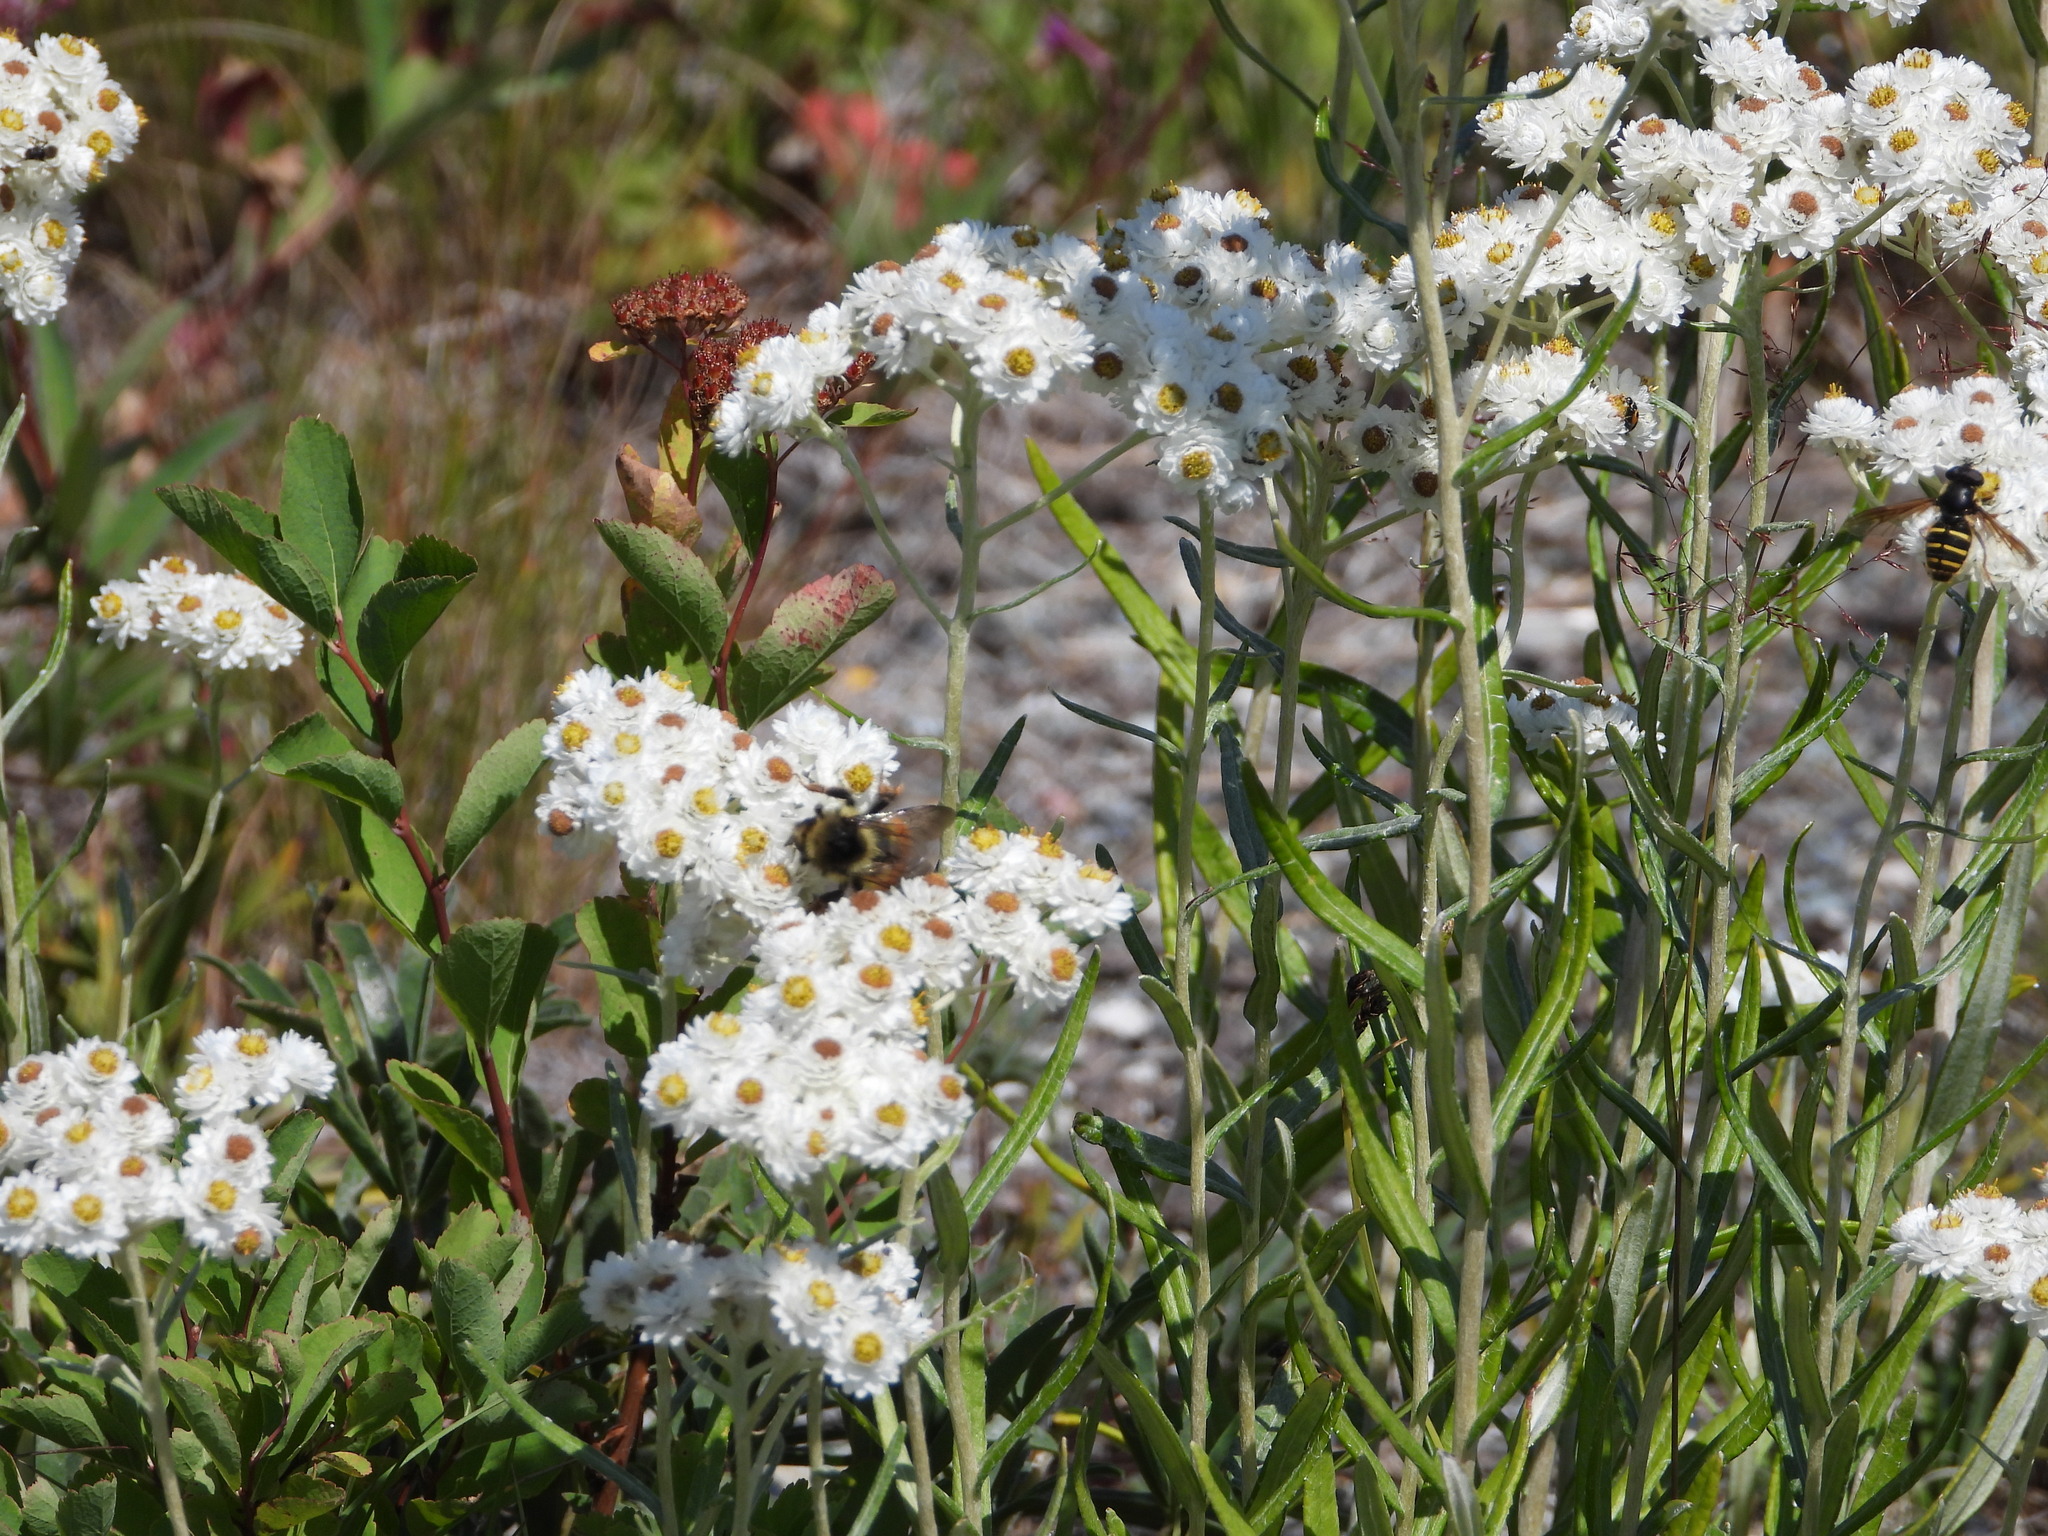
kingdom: Animalia
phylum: Arthropoda
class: Insecta
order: Hymenoptera
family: Apidae
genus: Bombus
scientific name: Bombus melanopygus
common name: Black tail bumble bee
